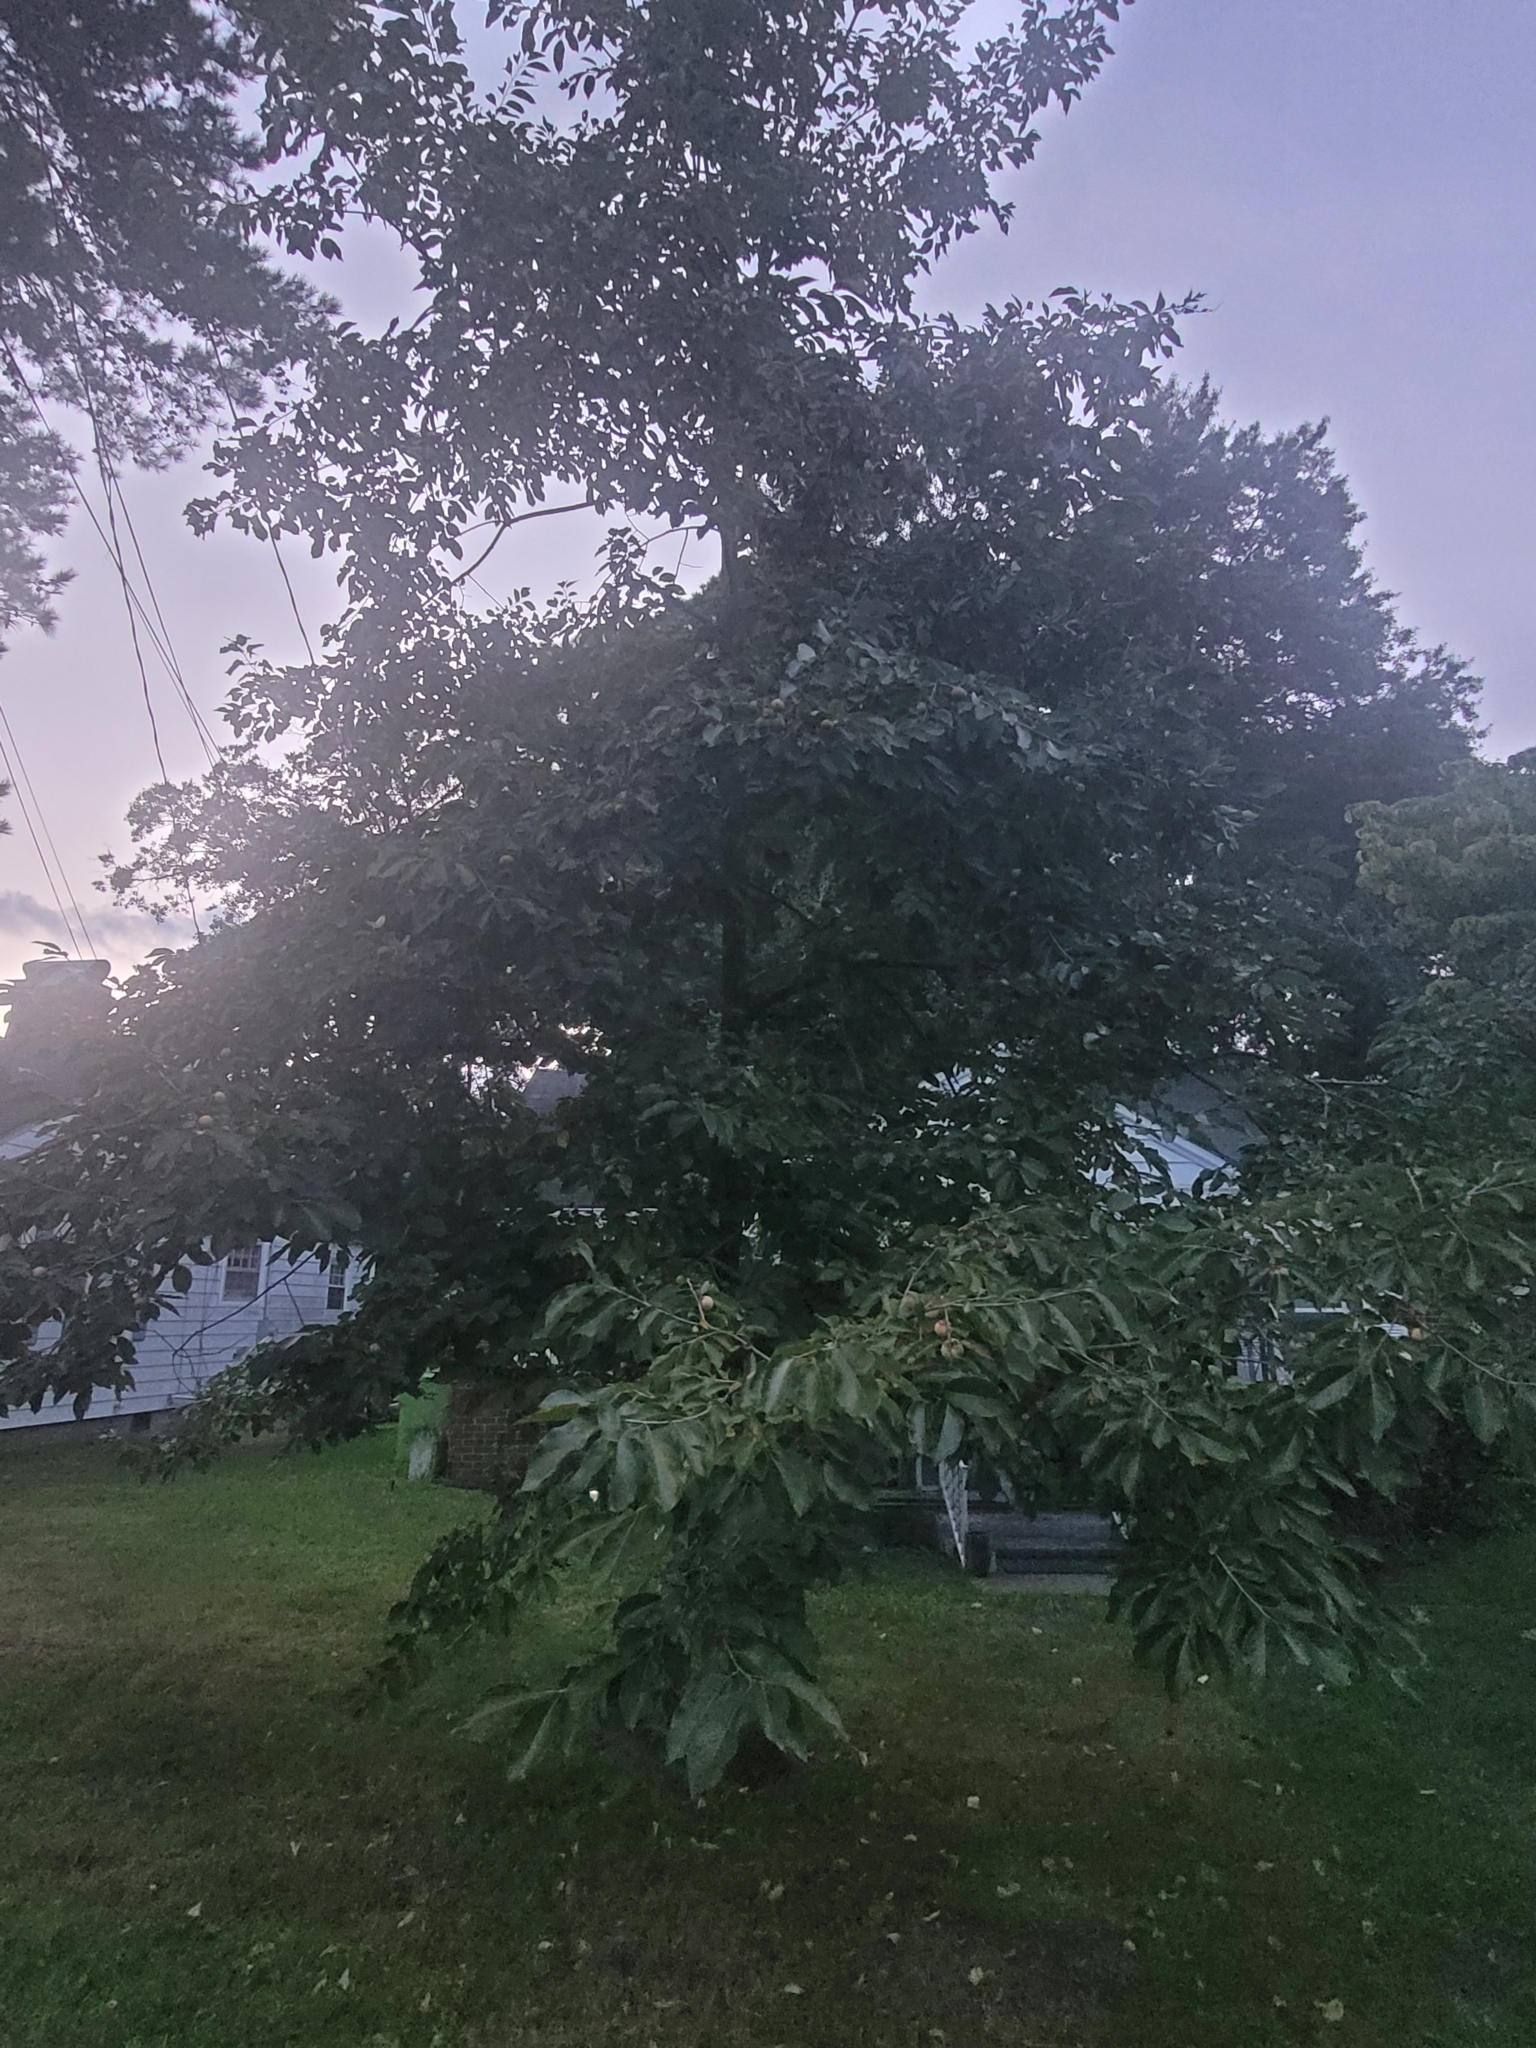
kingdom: Plantae
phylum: Tracheophyta
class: Magnoliopsida
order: Ericales
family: Ebenaceae
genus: Diospyros
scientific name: Diospyros virginiana
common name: Persimmon
